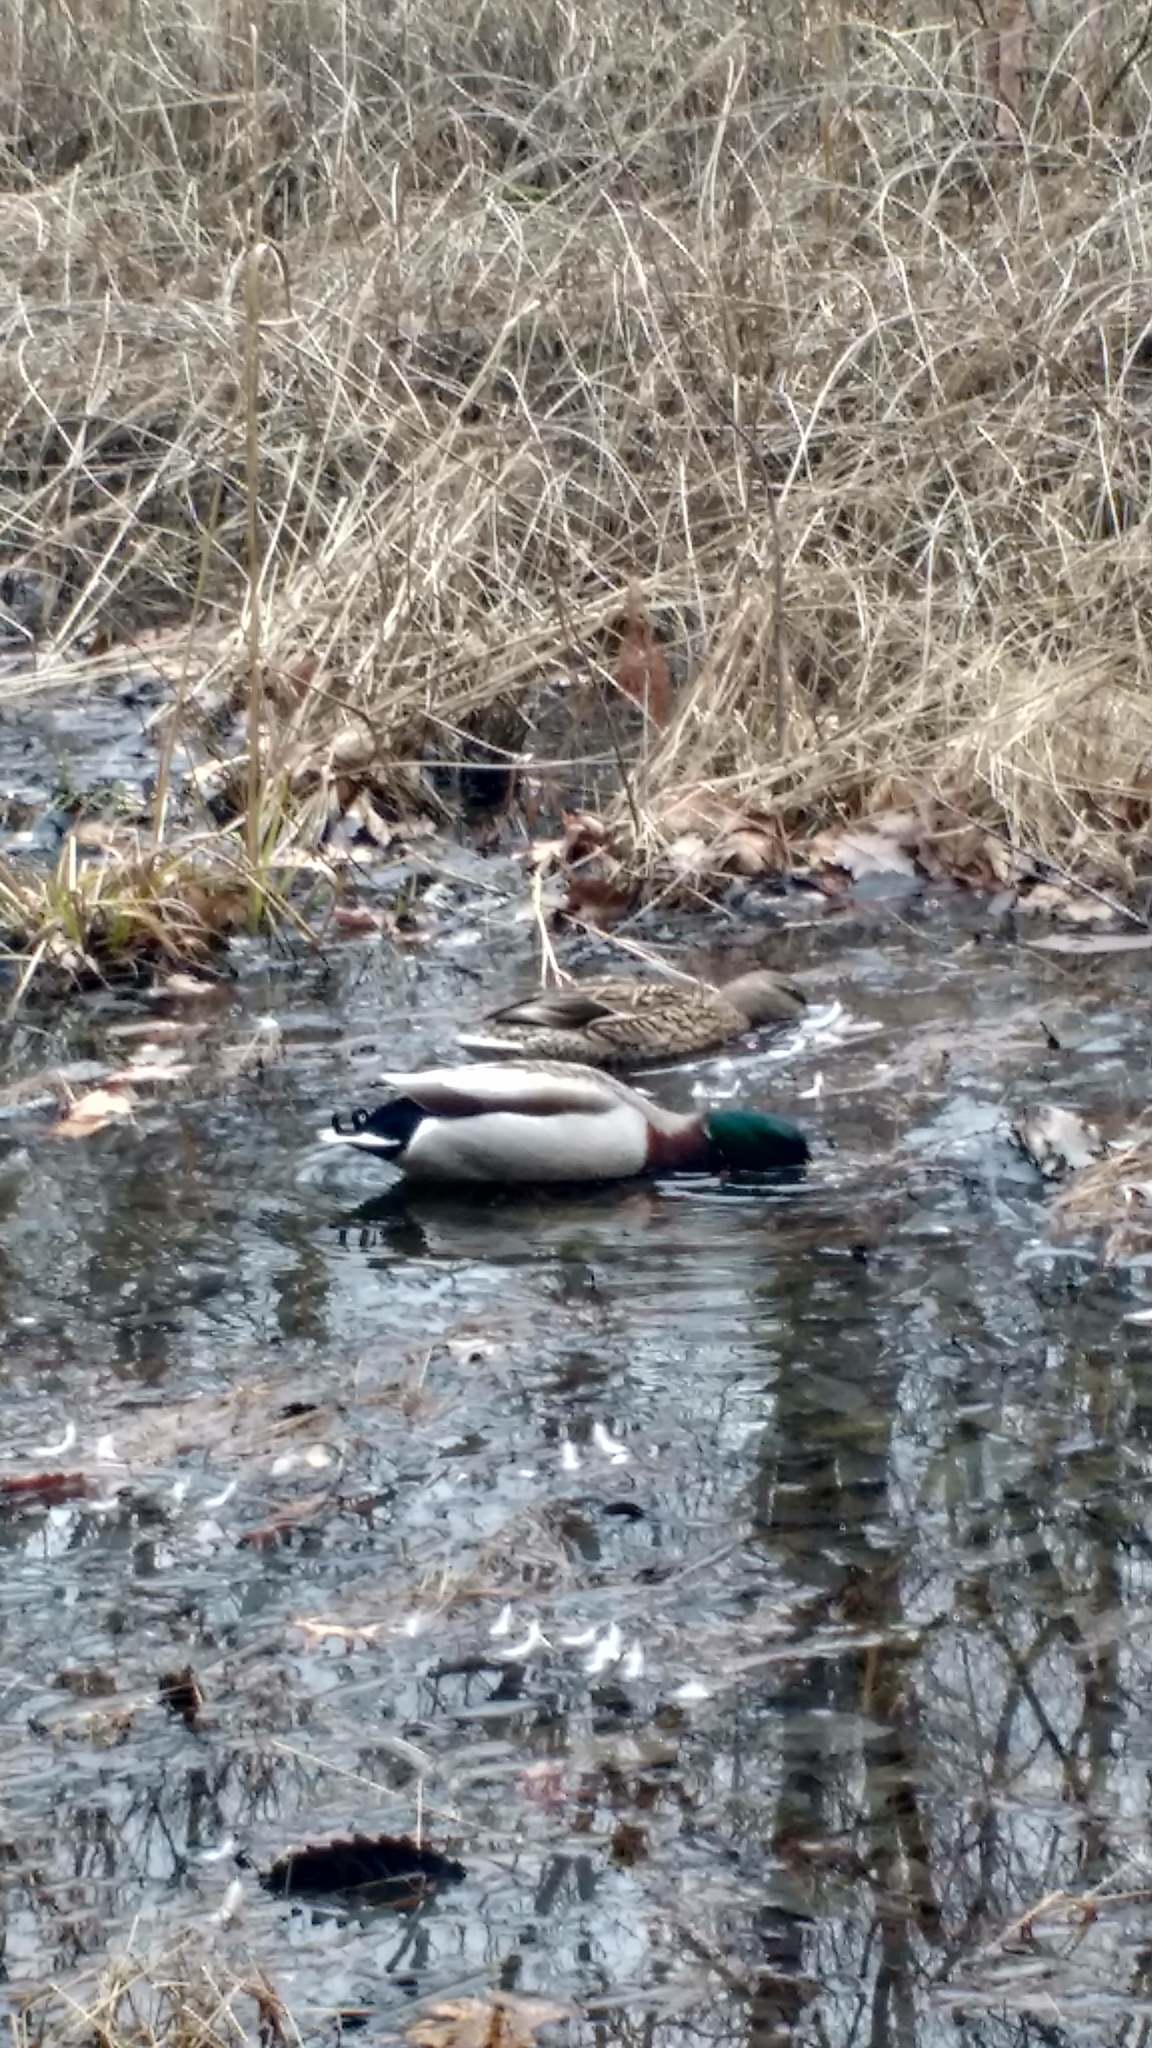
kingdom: Animalia
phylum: Chordata
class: Aves
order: Anseriformes
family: Anatidae
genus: Anas
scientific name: Anas platyrhynchos
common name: Mallard
